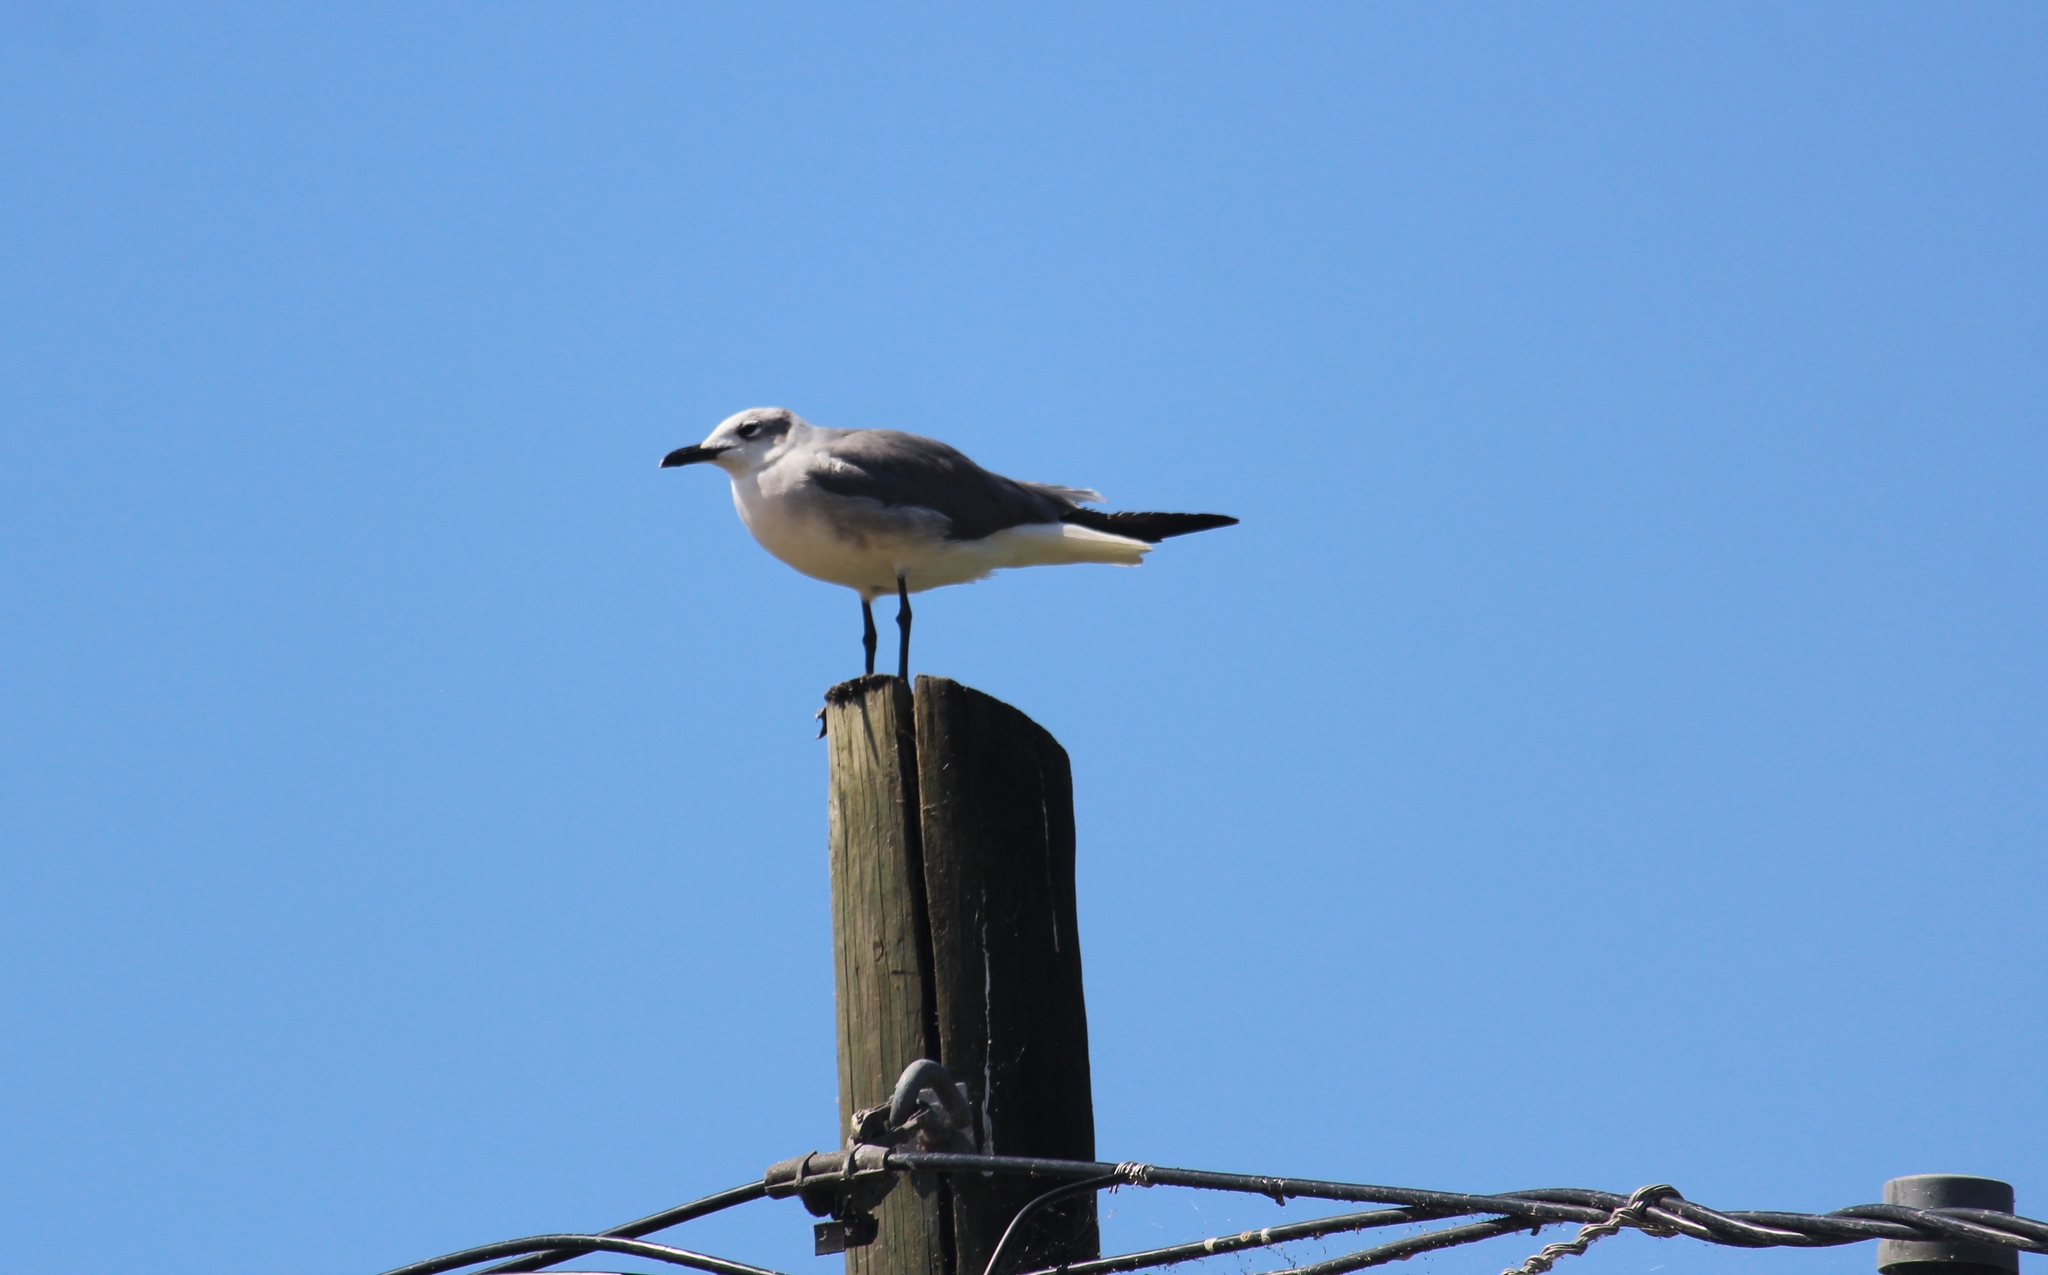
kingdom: Animalia
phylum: Chordata
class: Aves
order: Charadriiformes
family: Laridae
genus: Leucophaeus
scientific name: Leucophaeus atricilla
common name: Laughing gull
